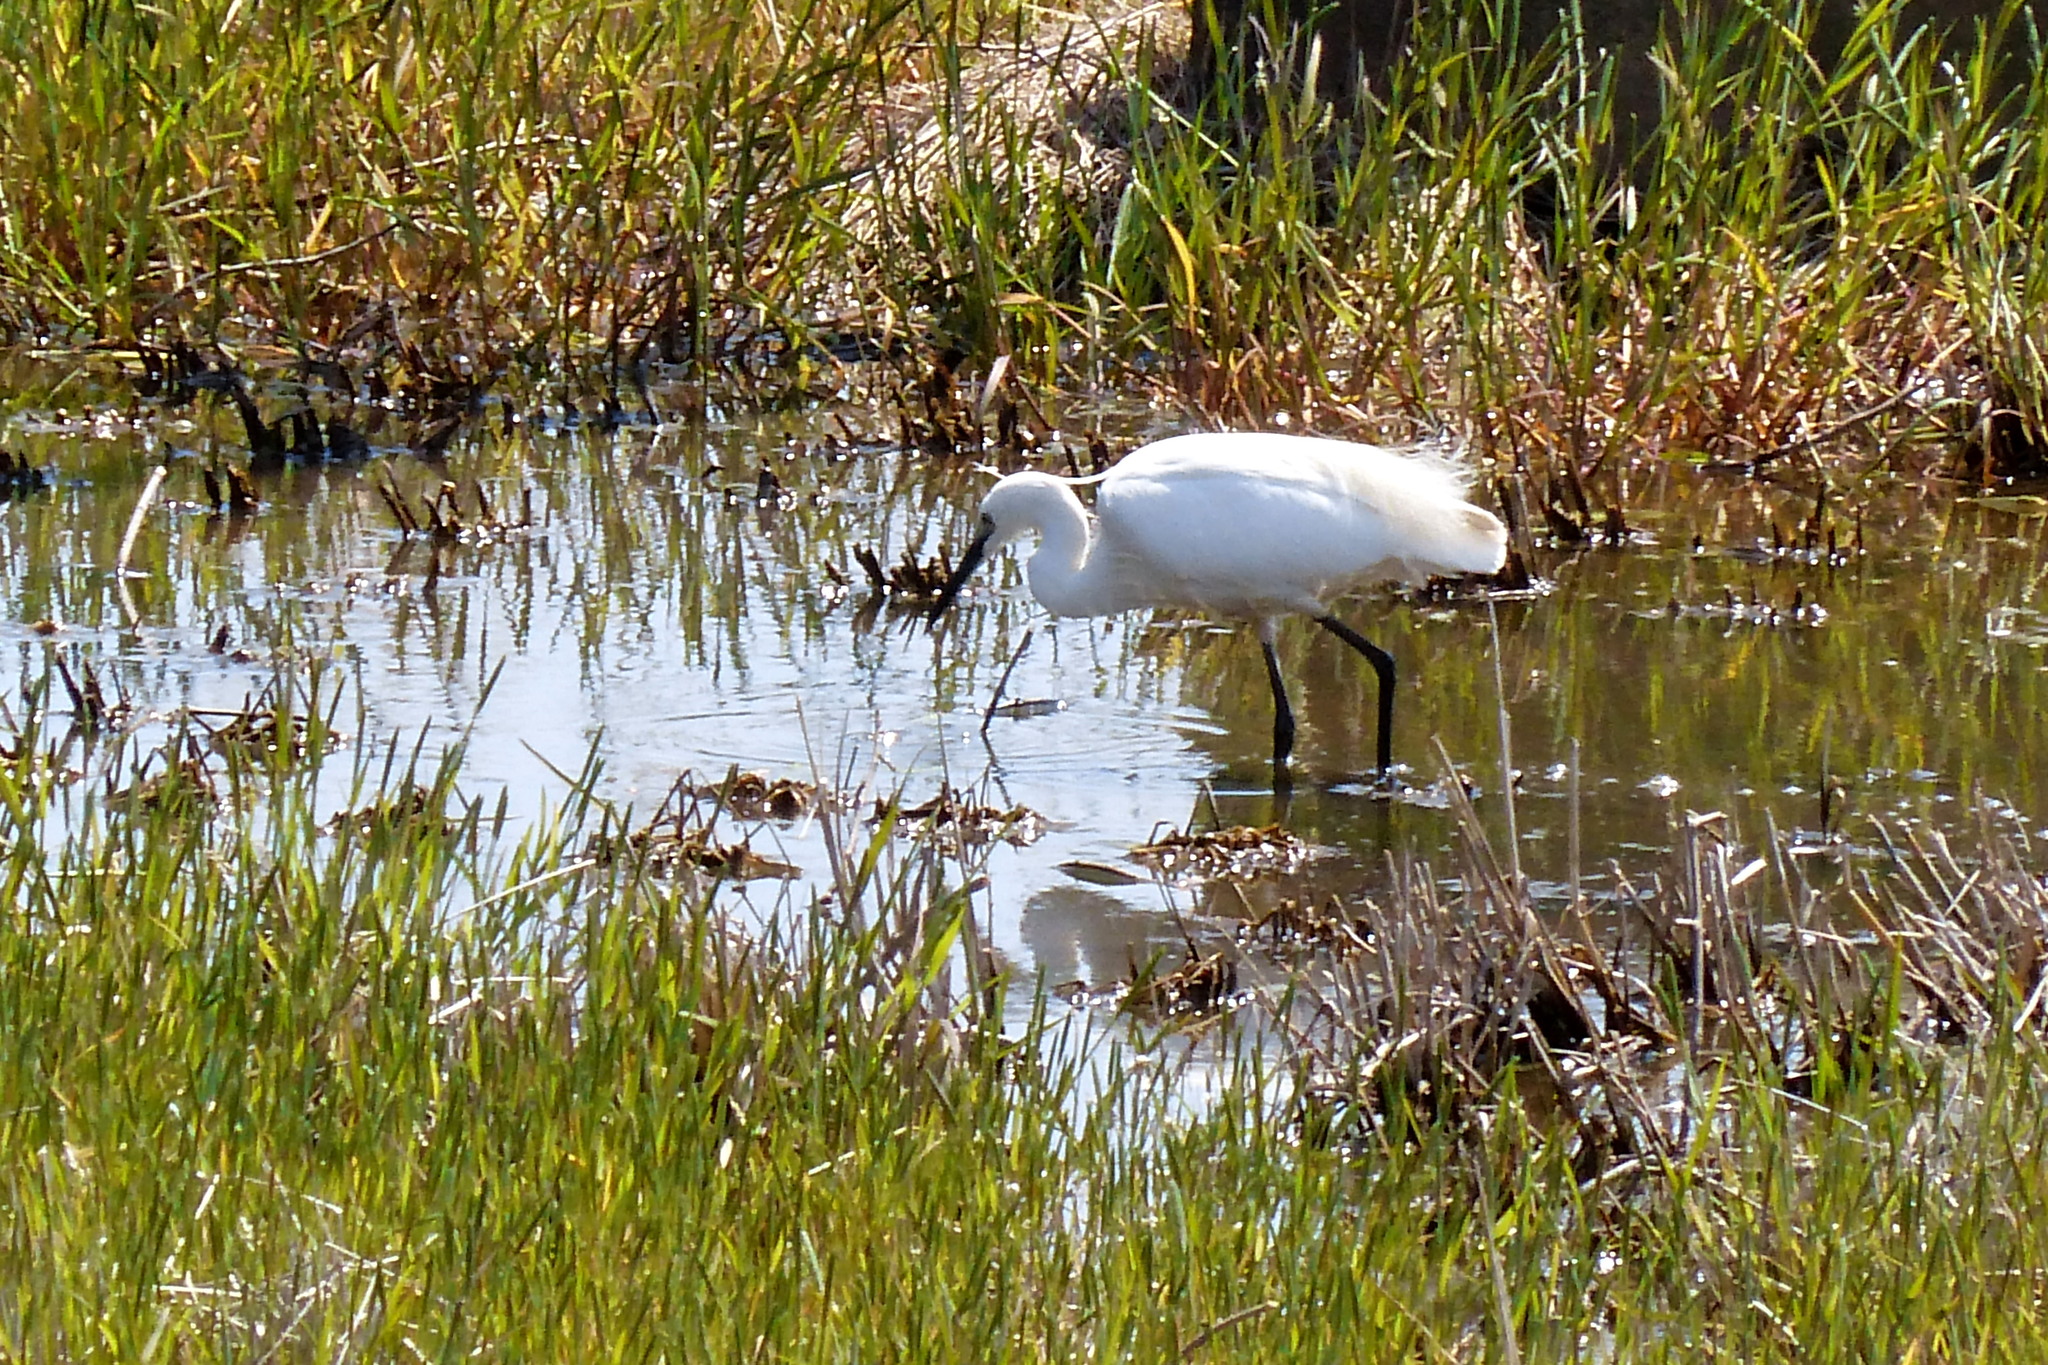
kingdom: Animalia
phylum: Chordata
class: Aves
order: Pelecaniformes
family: Ardeidae
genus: Egretta
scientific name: Egretta garzetta
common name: Little egret
